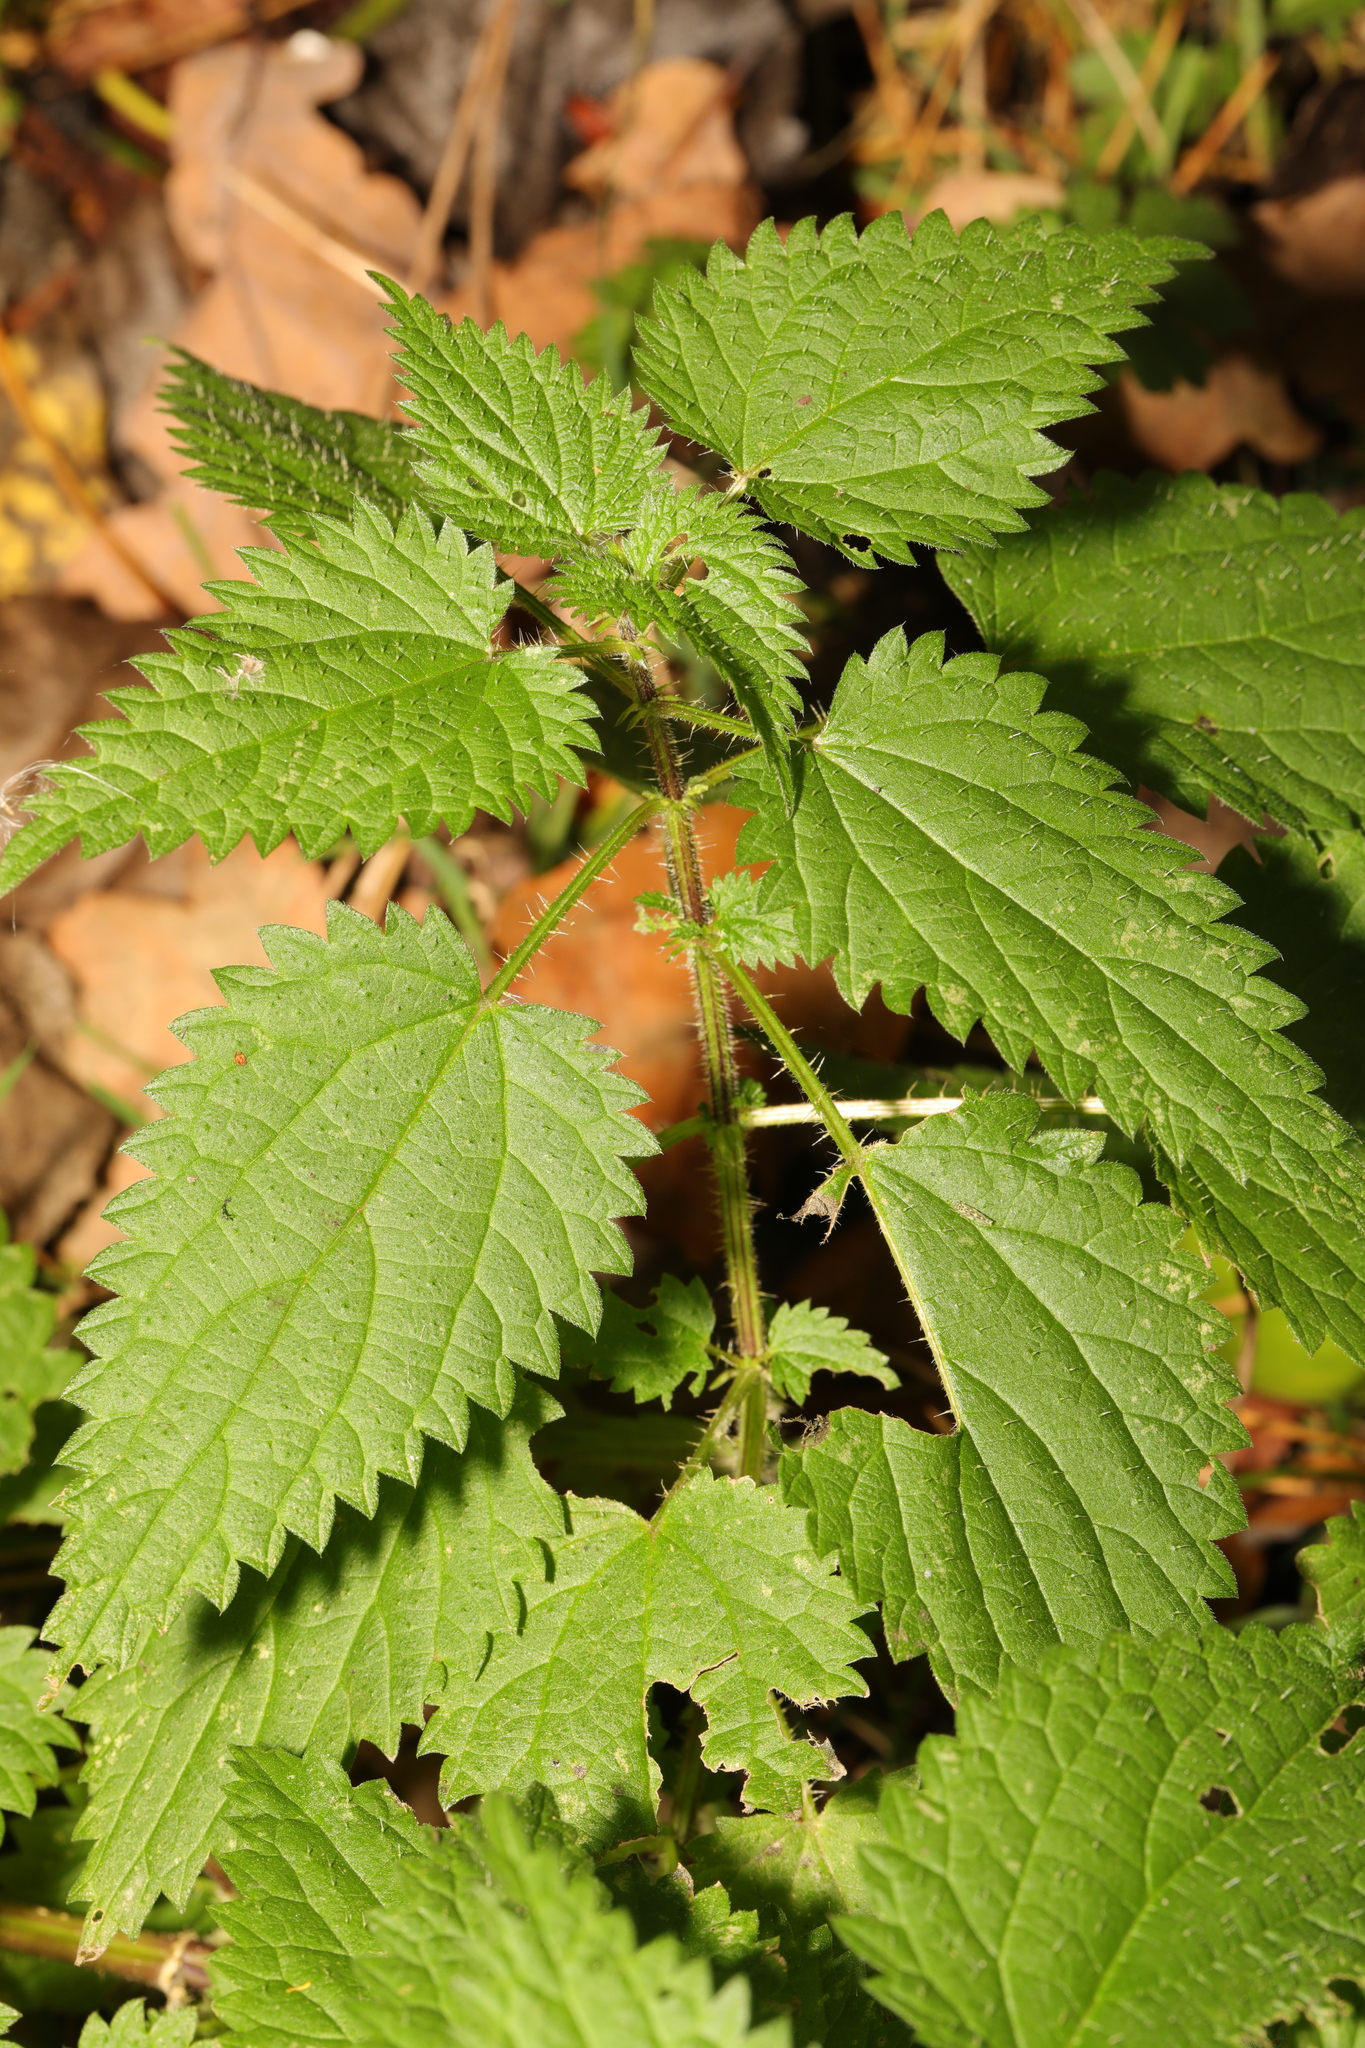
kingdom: Plantae
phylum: Tracheophyta
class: Magnoliopsida
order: Rosales
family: Urticaceae
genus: Urtica
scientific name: Urtica dioica
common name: Common nettle
